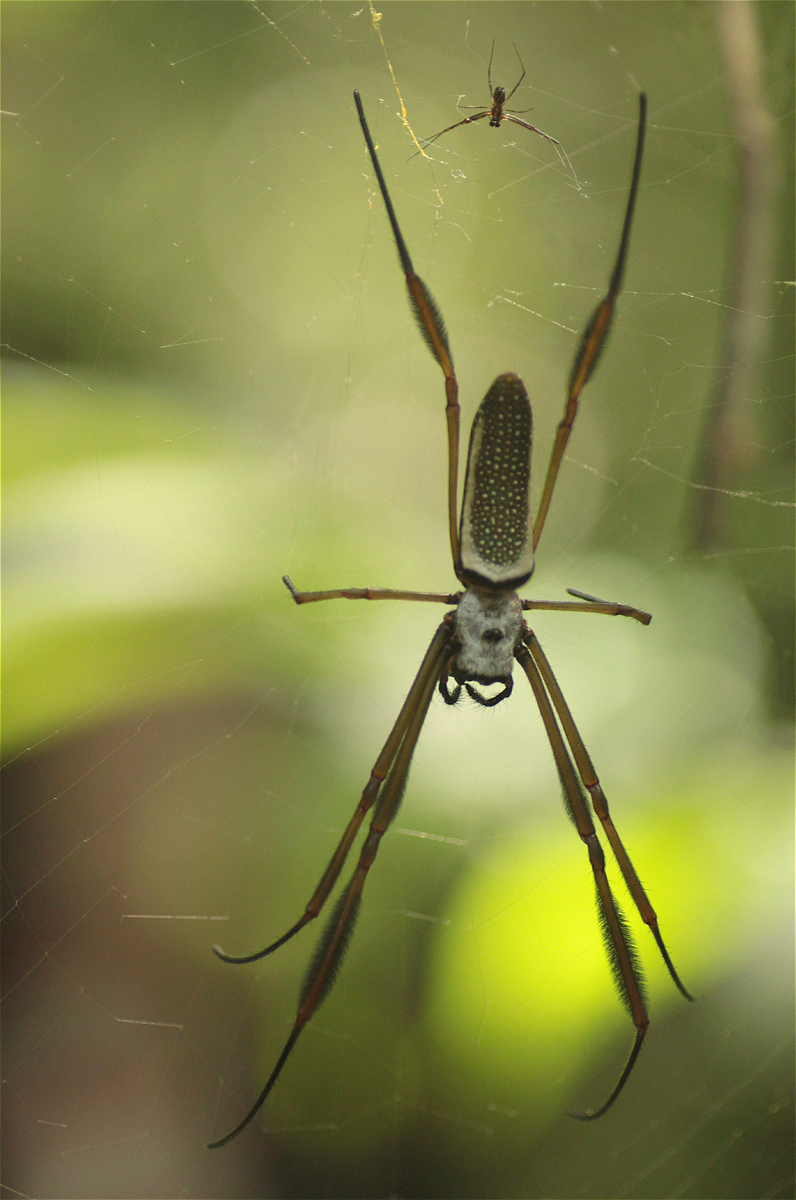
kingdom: Animalia
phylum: Arthropoda
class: Arachnida
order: Araneae
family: Araneidae
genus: Trichonephila
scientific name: Trichonephila clavipes
